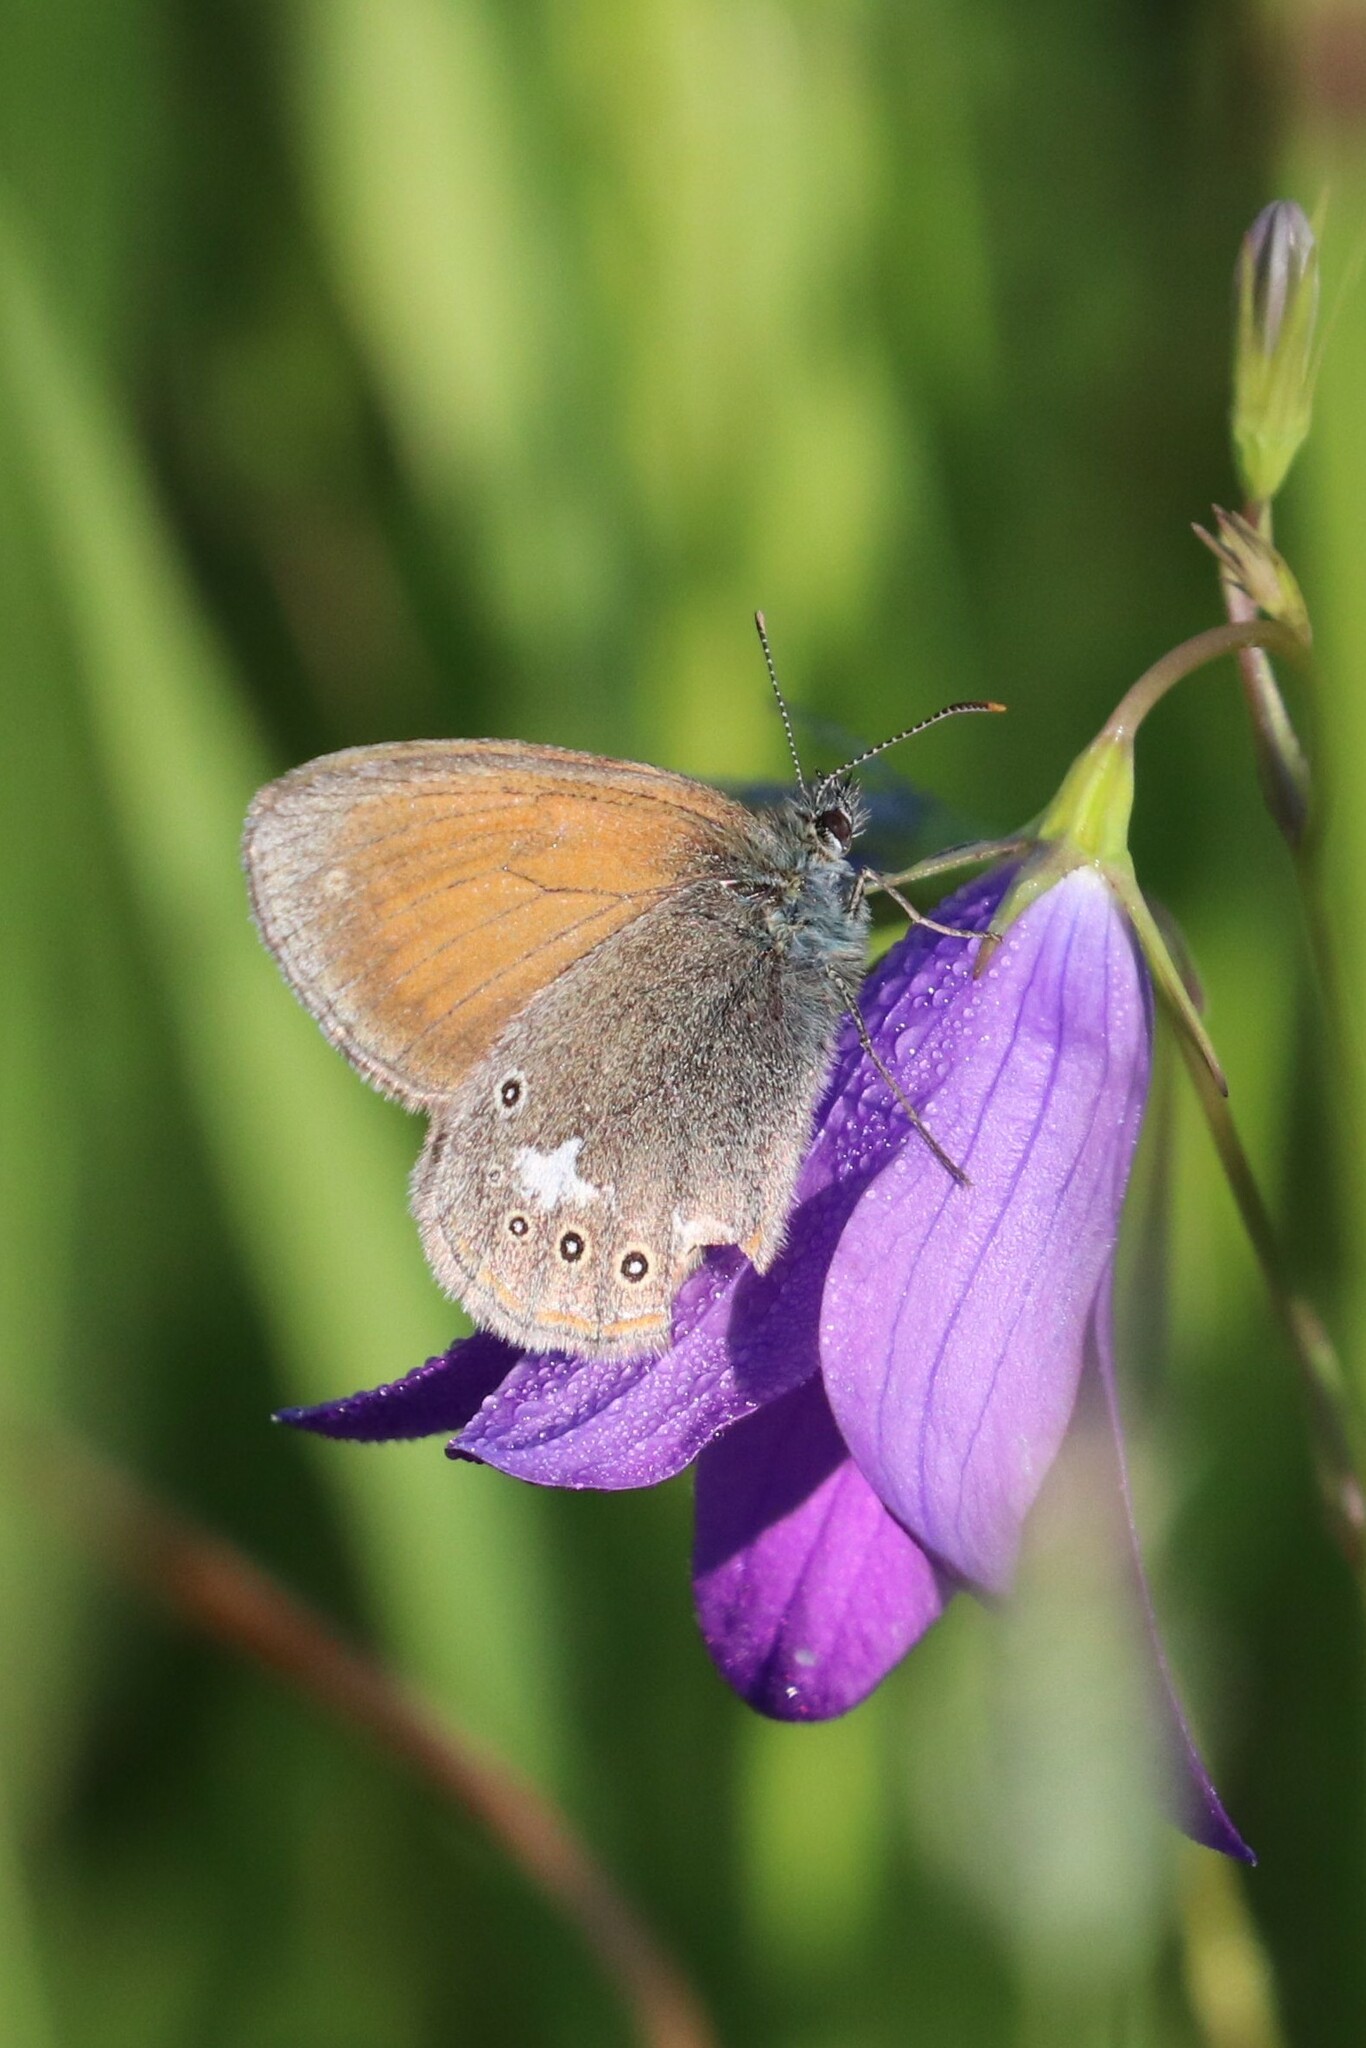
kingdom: Animalia
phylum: Arthropoda
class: Insecta
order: Lepidoptera
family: Nymphalidae
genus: Coenonympha
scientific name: Coenonympha iphis
